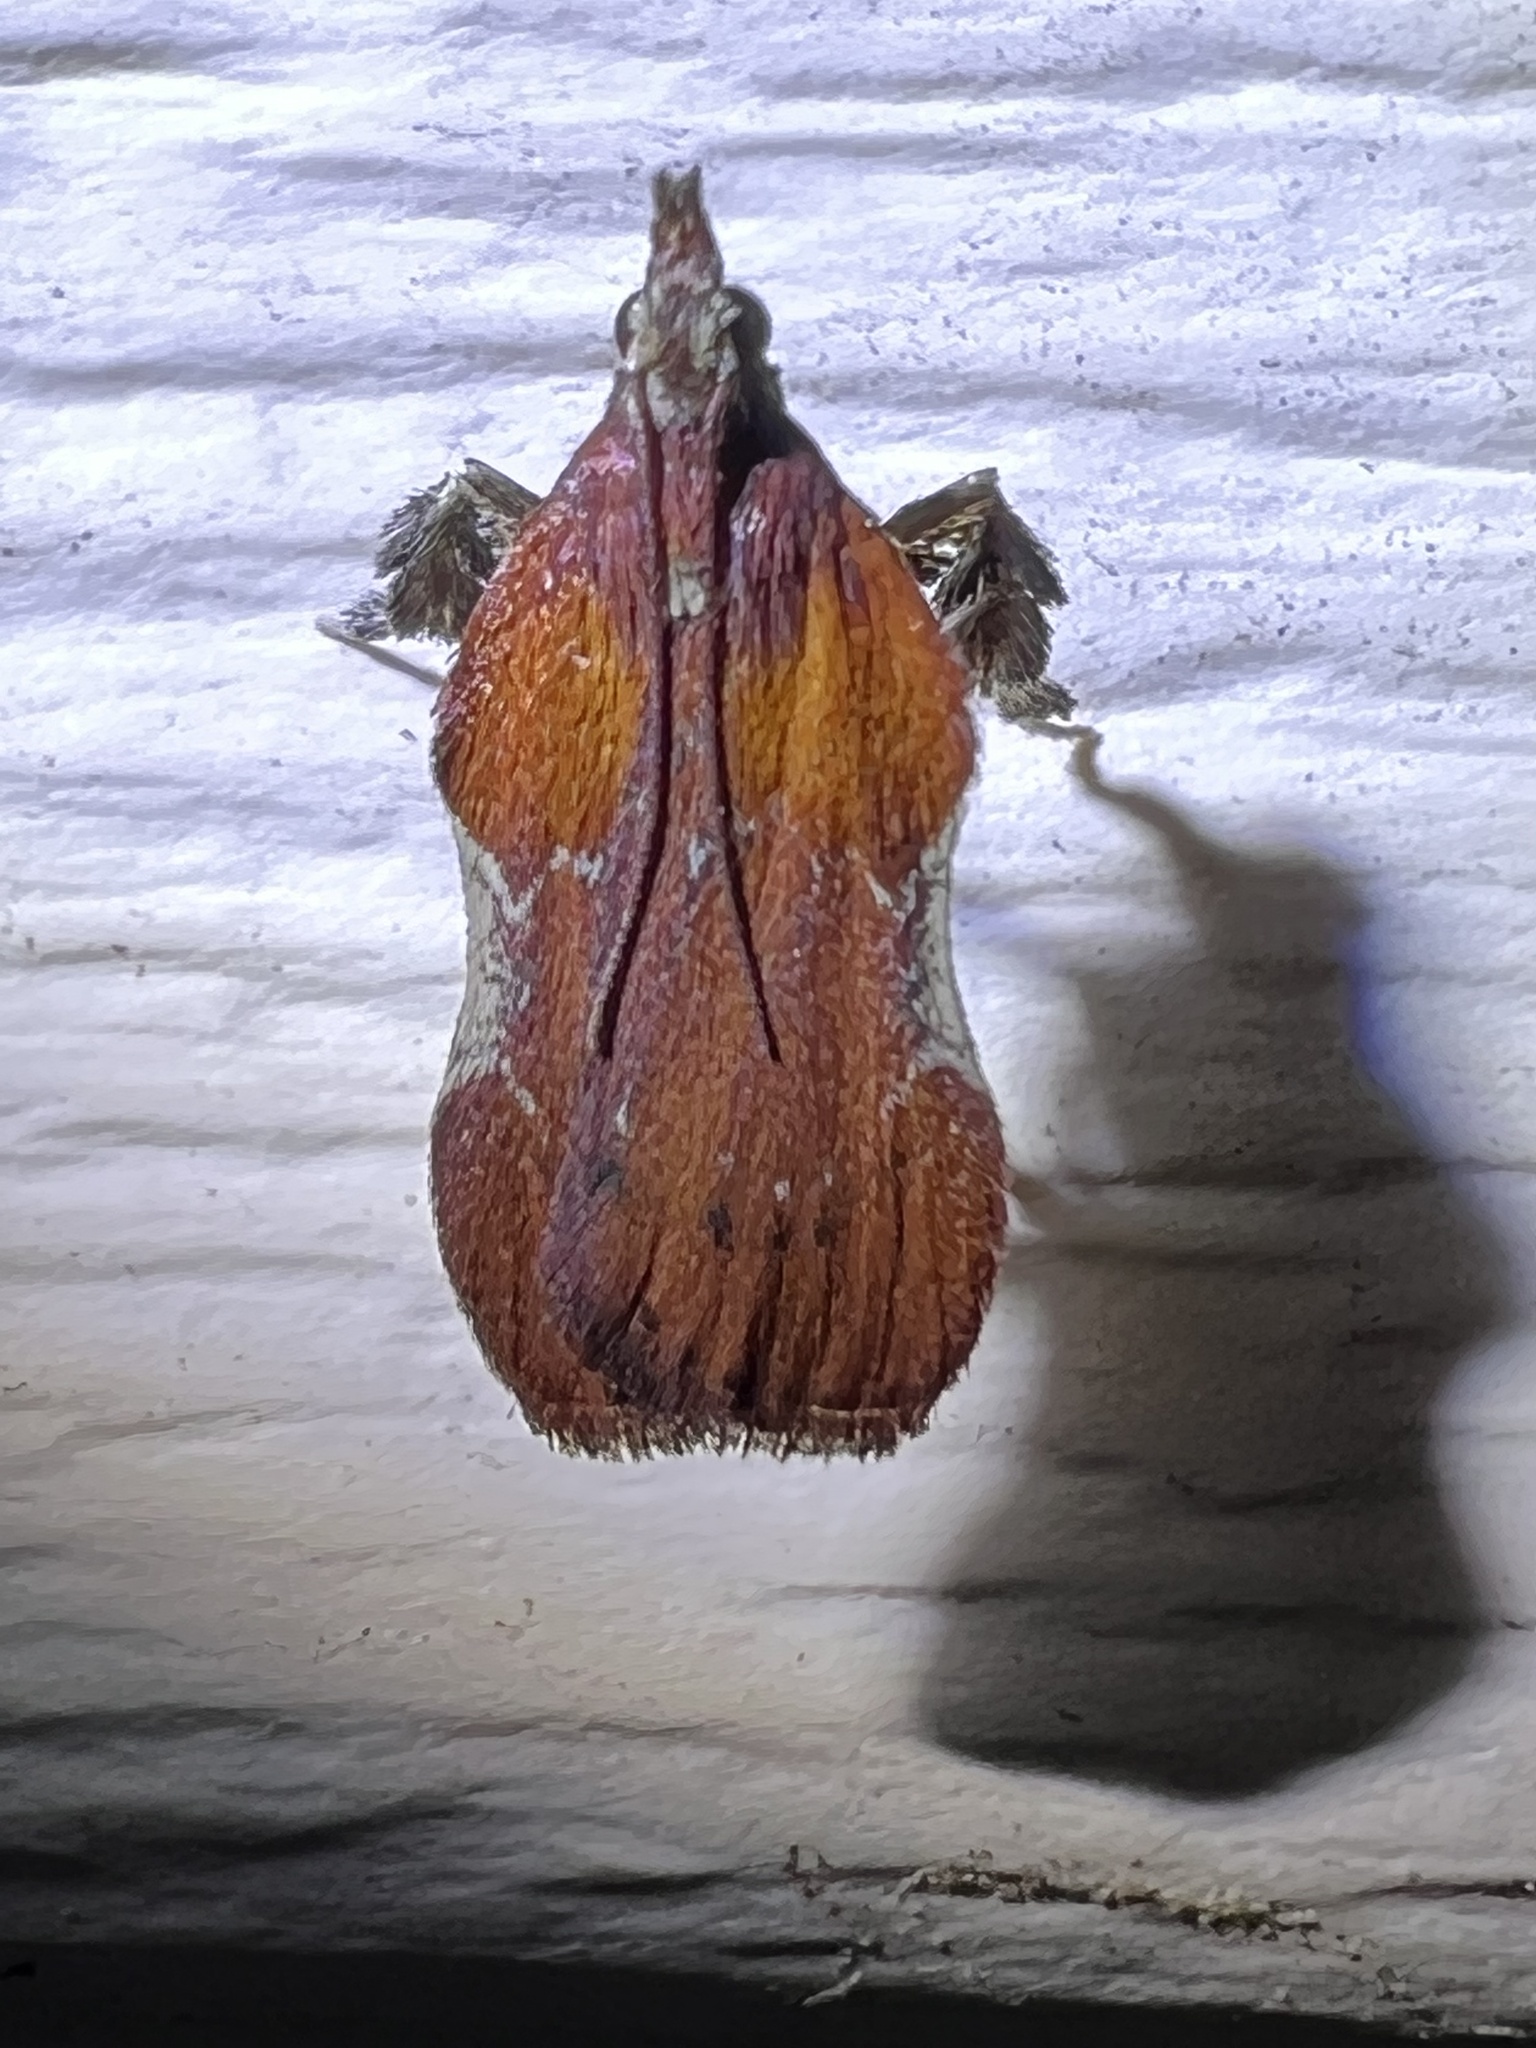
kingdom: Animalia
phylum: Arthropoda
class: Insecta
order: Lepidoptera
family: Pyralidae
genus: Galasa
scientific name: Galasa nigrinodis
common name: Boxwood leaftier moth
